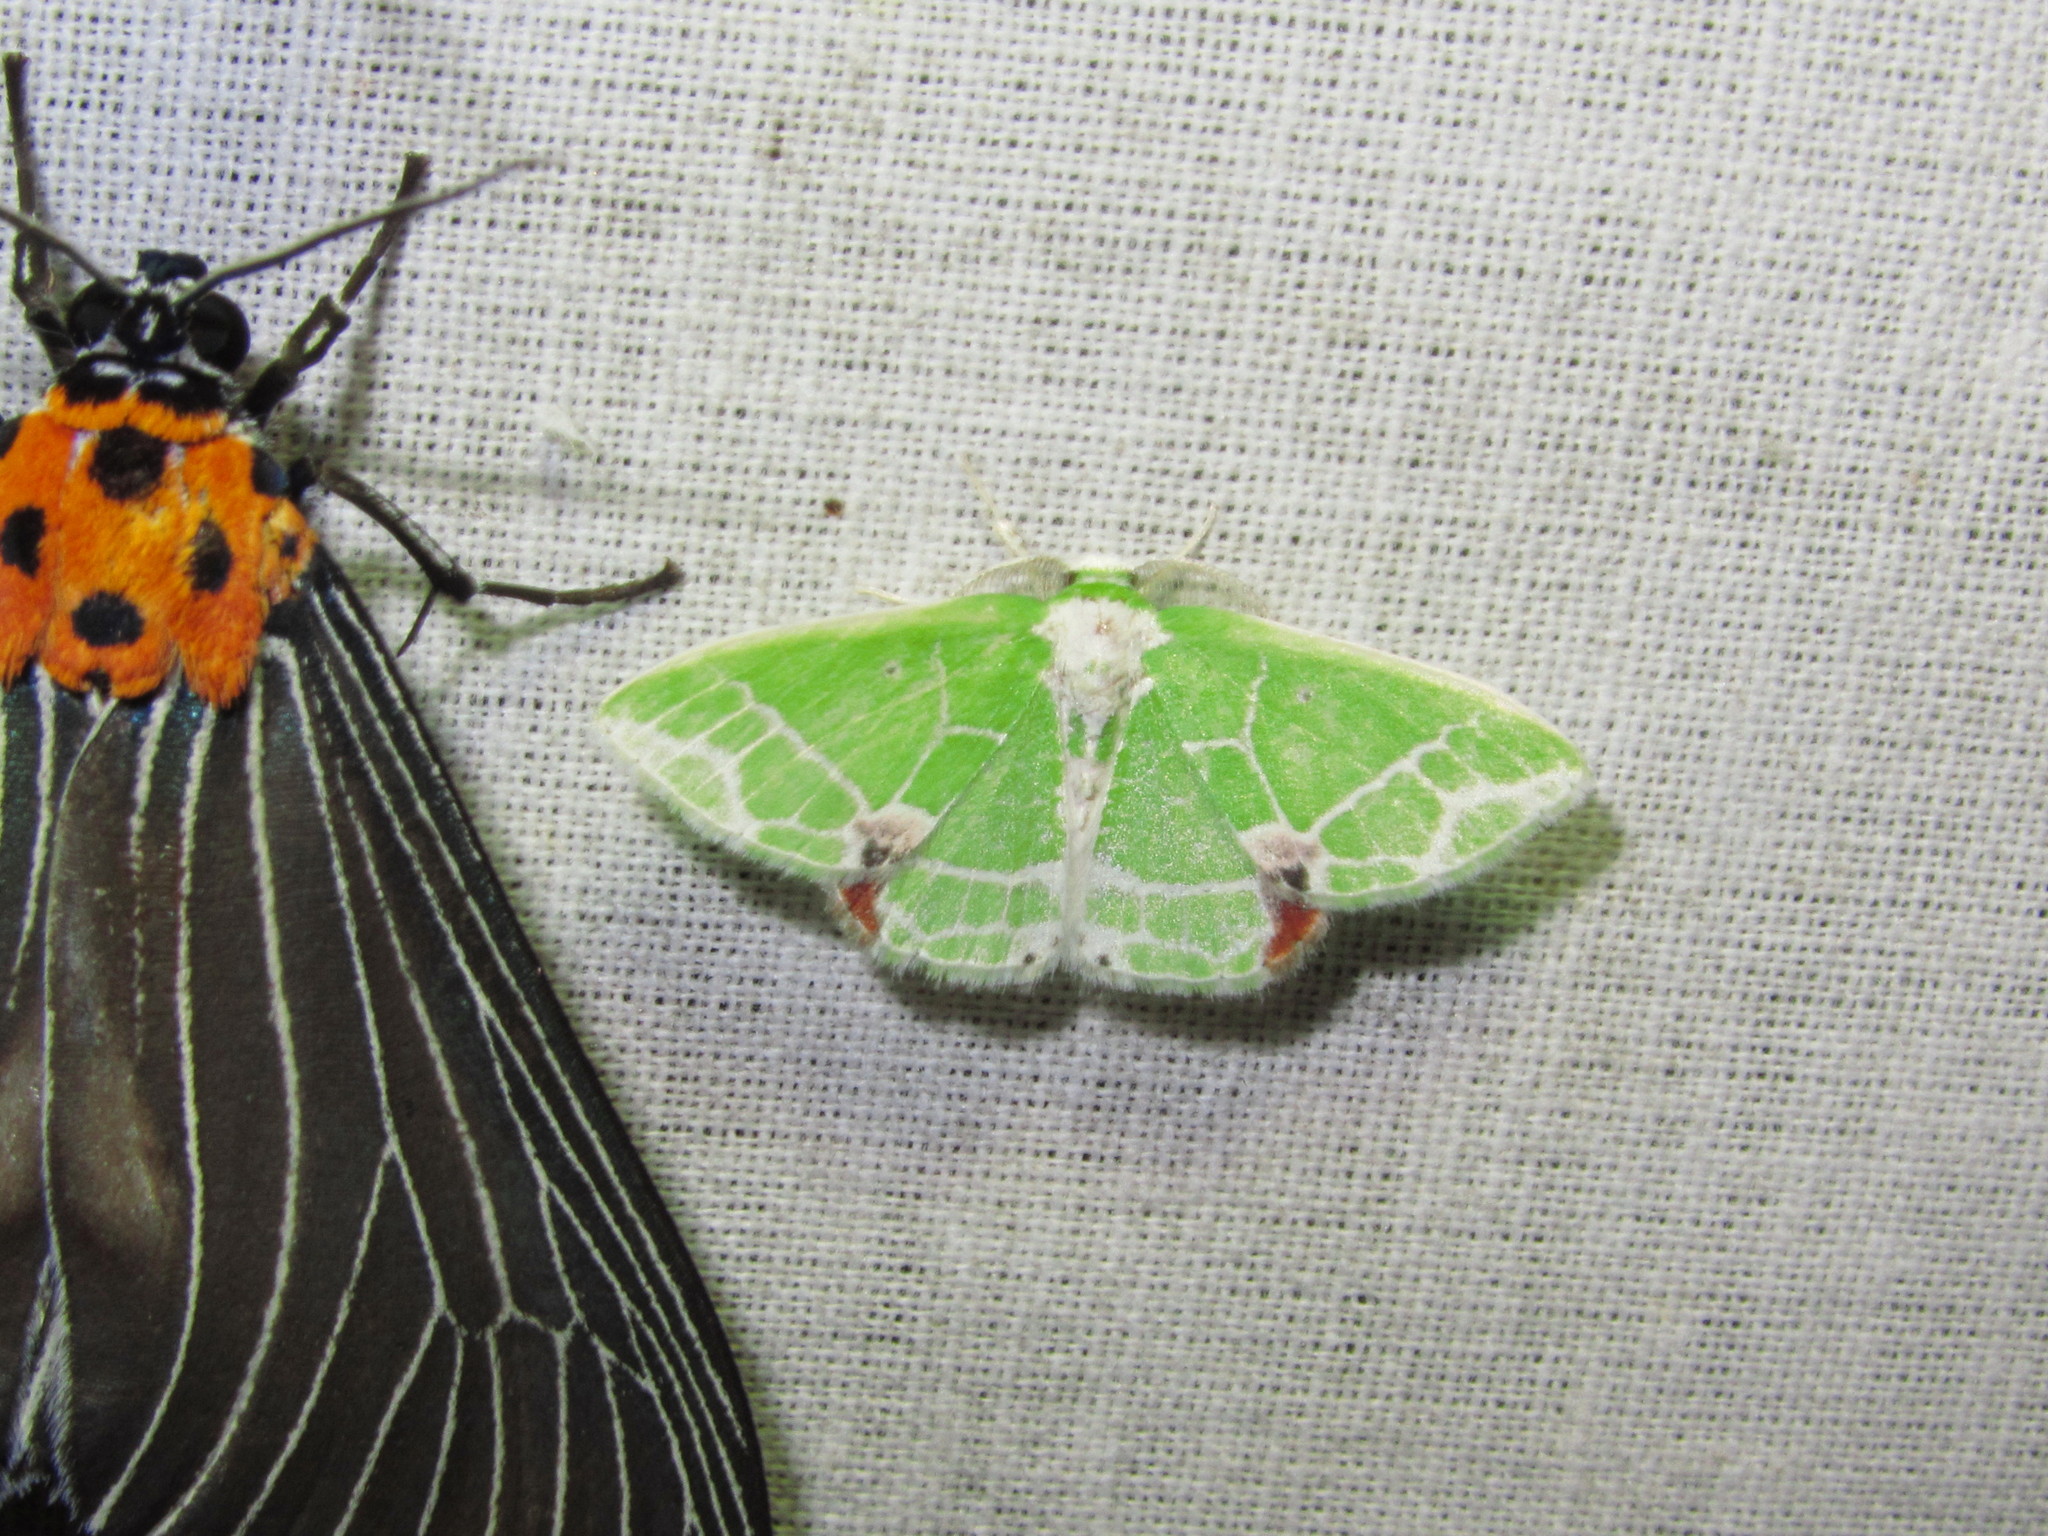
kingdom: Animalia
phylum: Arthropoda
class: Insecta
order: Lepidoptera
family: Geometridae
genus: Protuliocnemis
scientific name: Protuliocnemis castalaria
